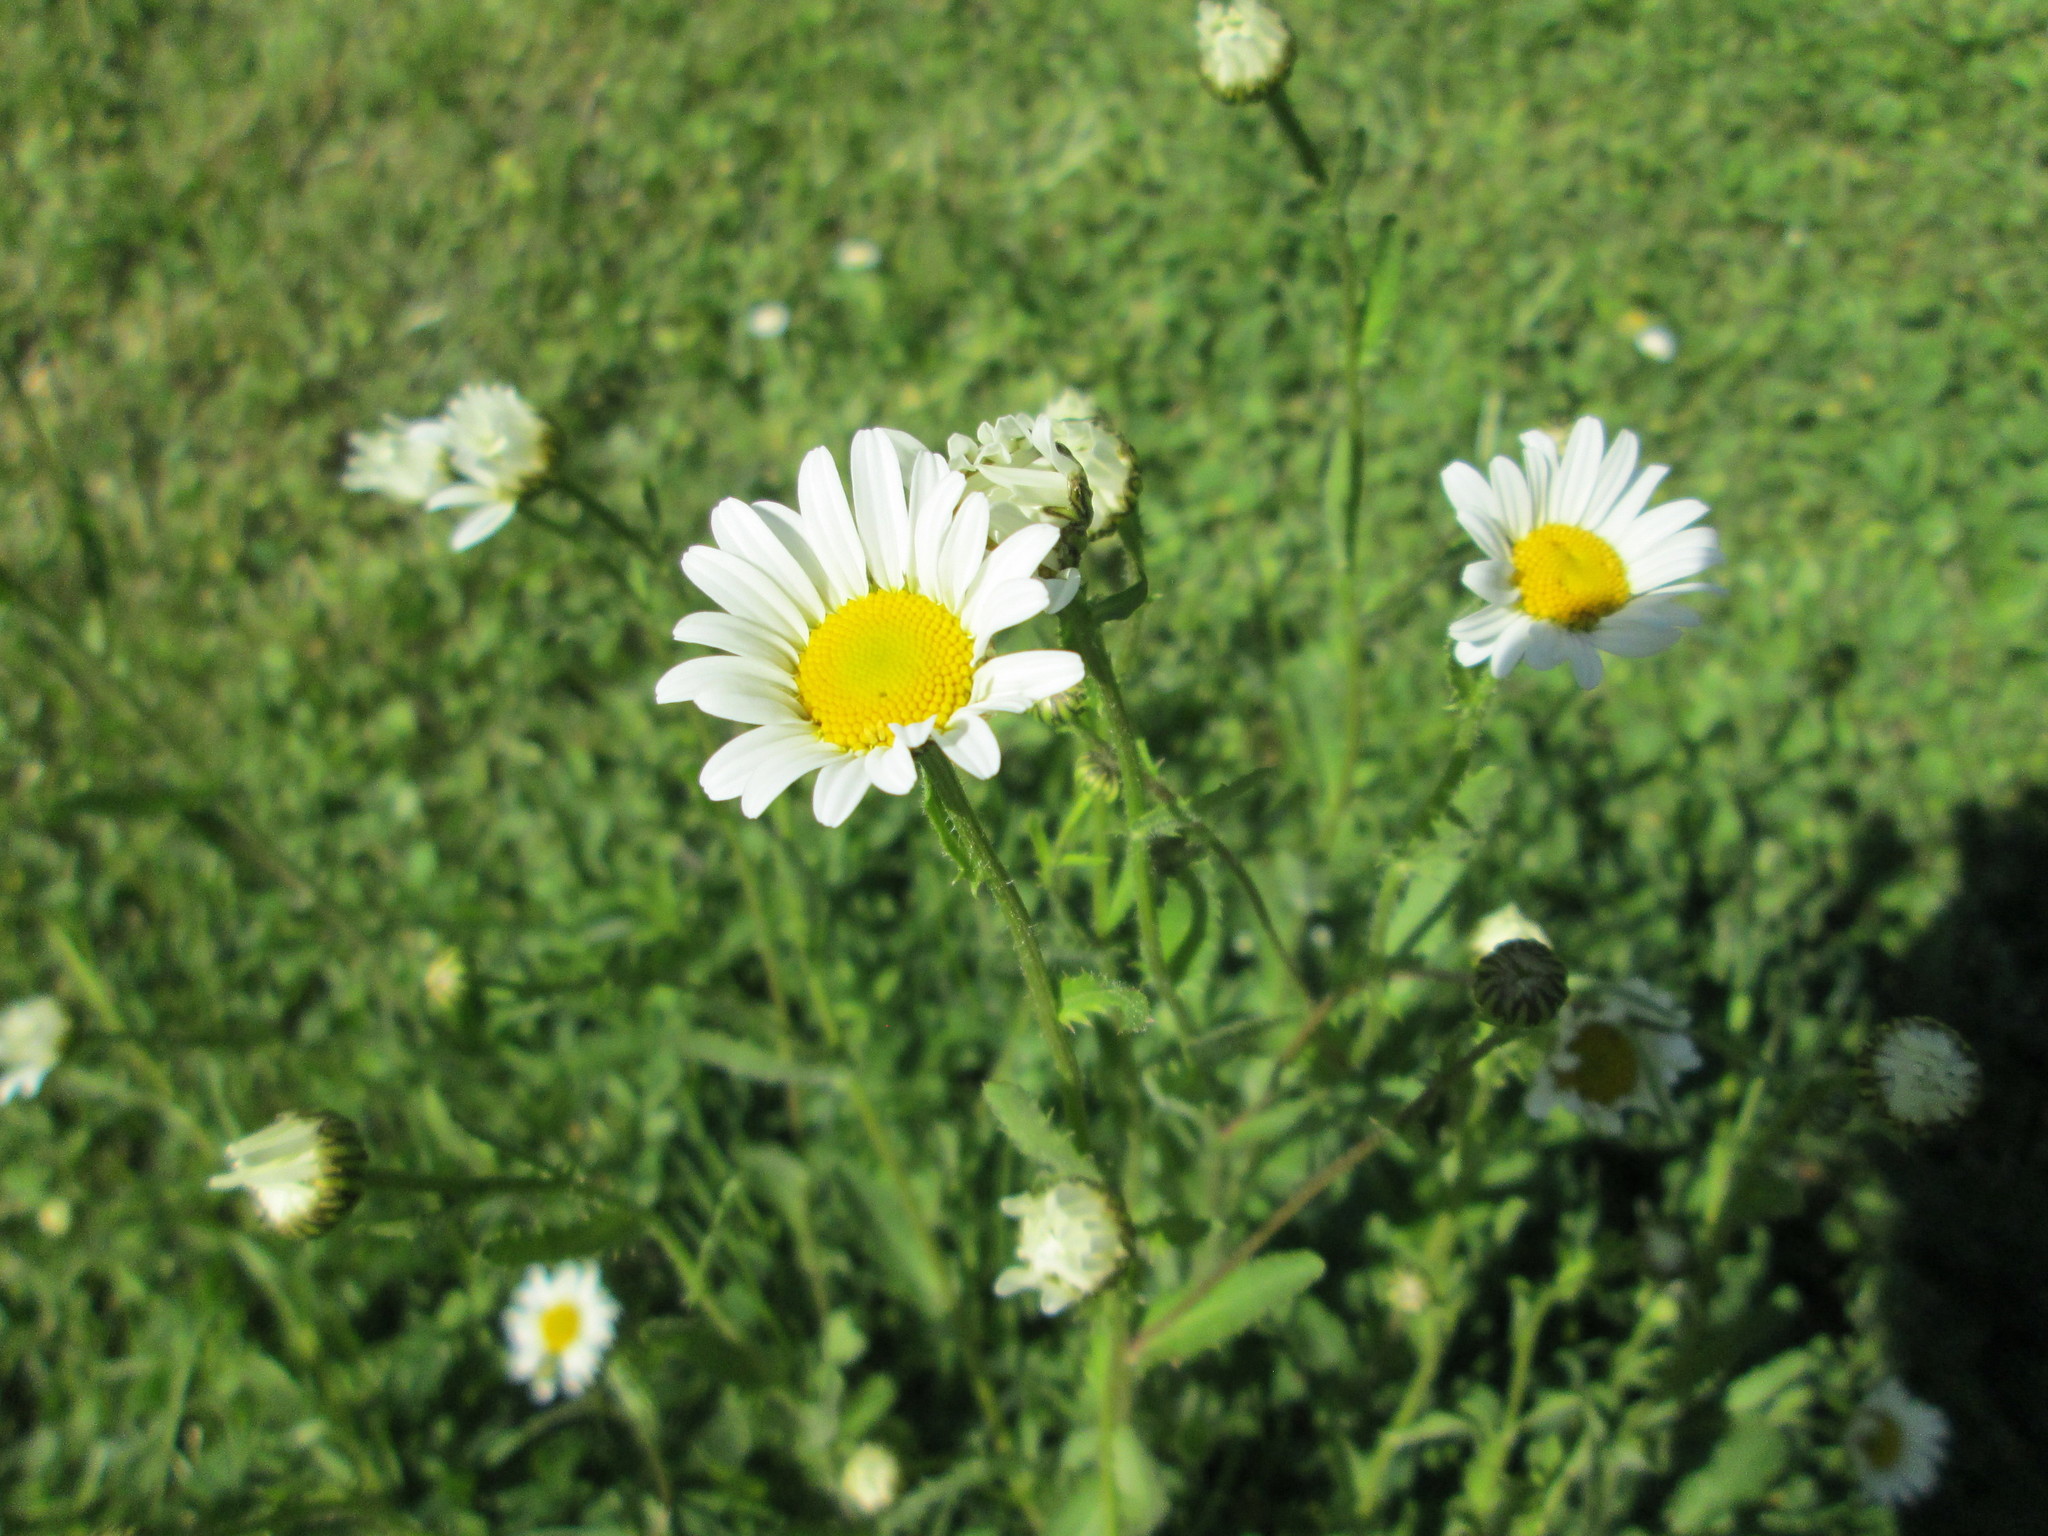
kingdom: Plantae
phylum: Tracheophyta
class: Magnoliopsida
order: Asterales
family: Asteraceae
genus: Leucanthemum
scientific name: Leucanthemum vulgare
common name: Oxeye daisy
